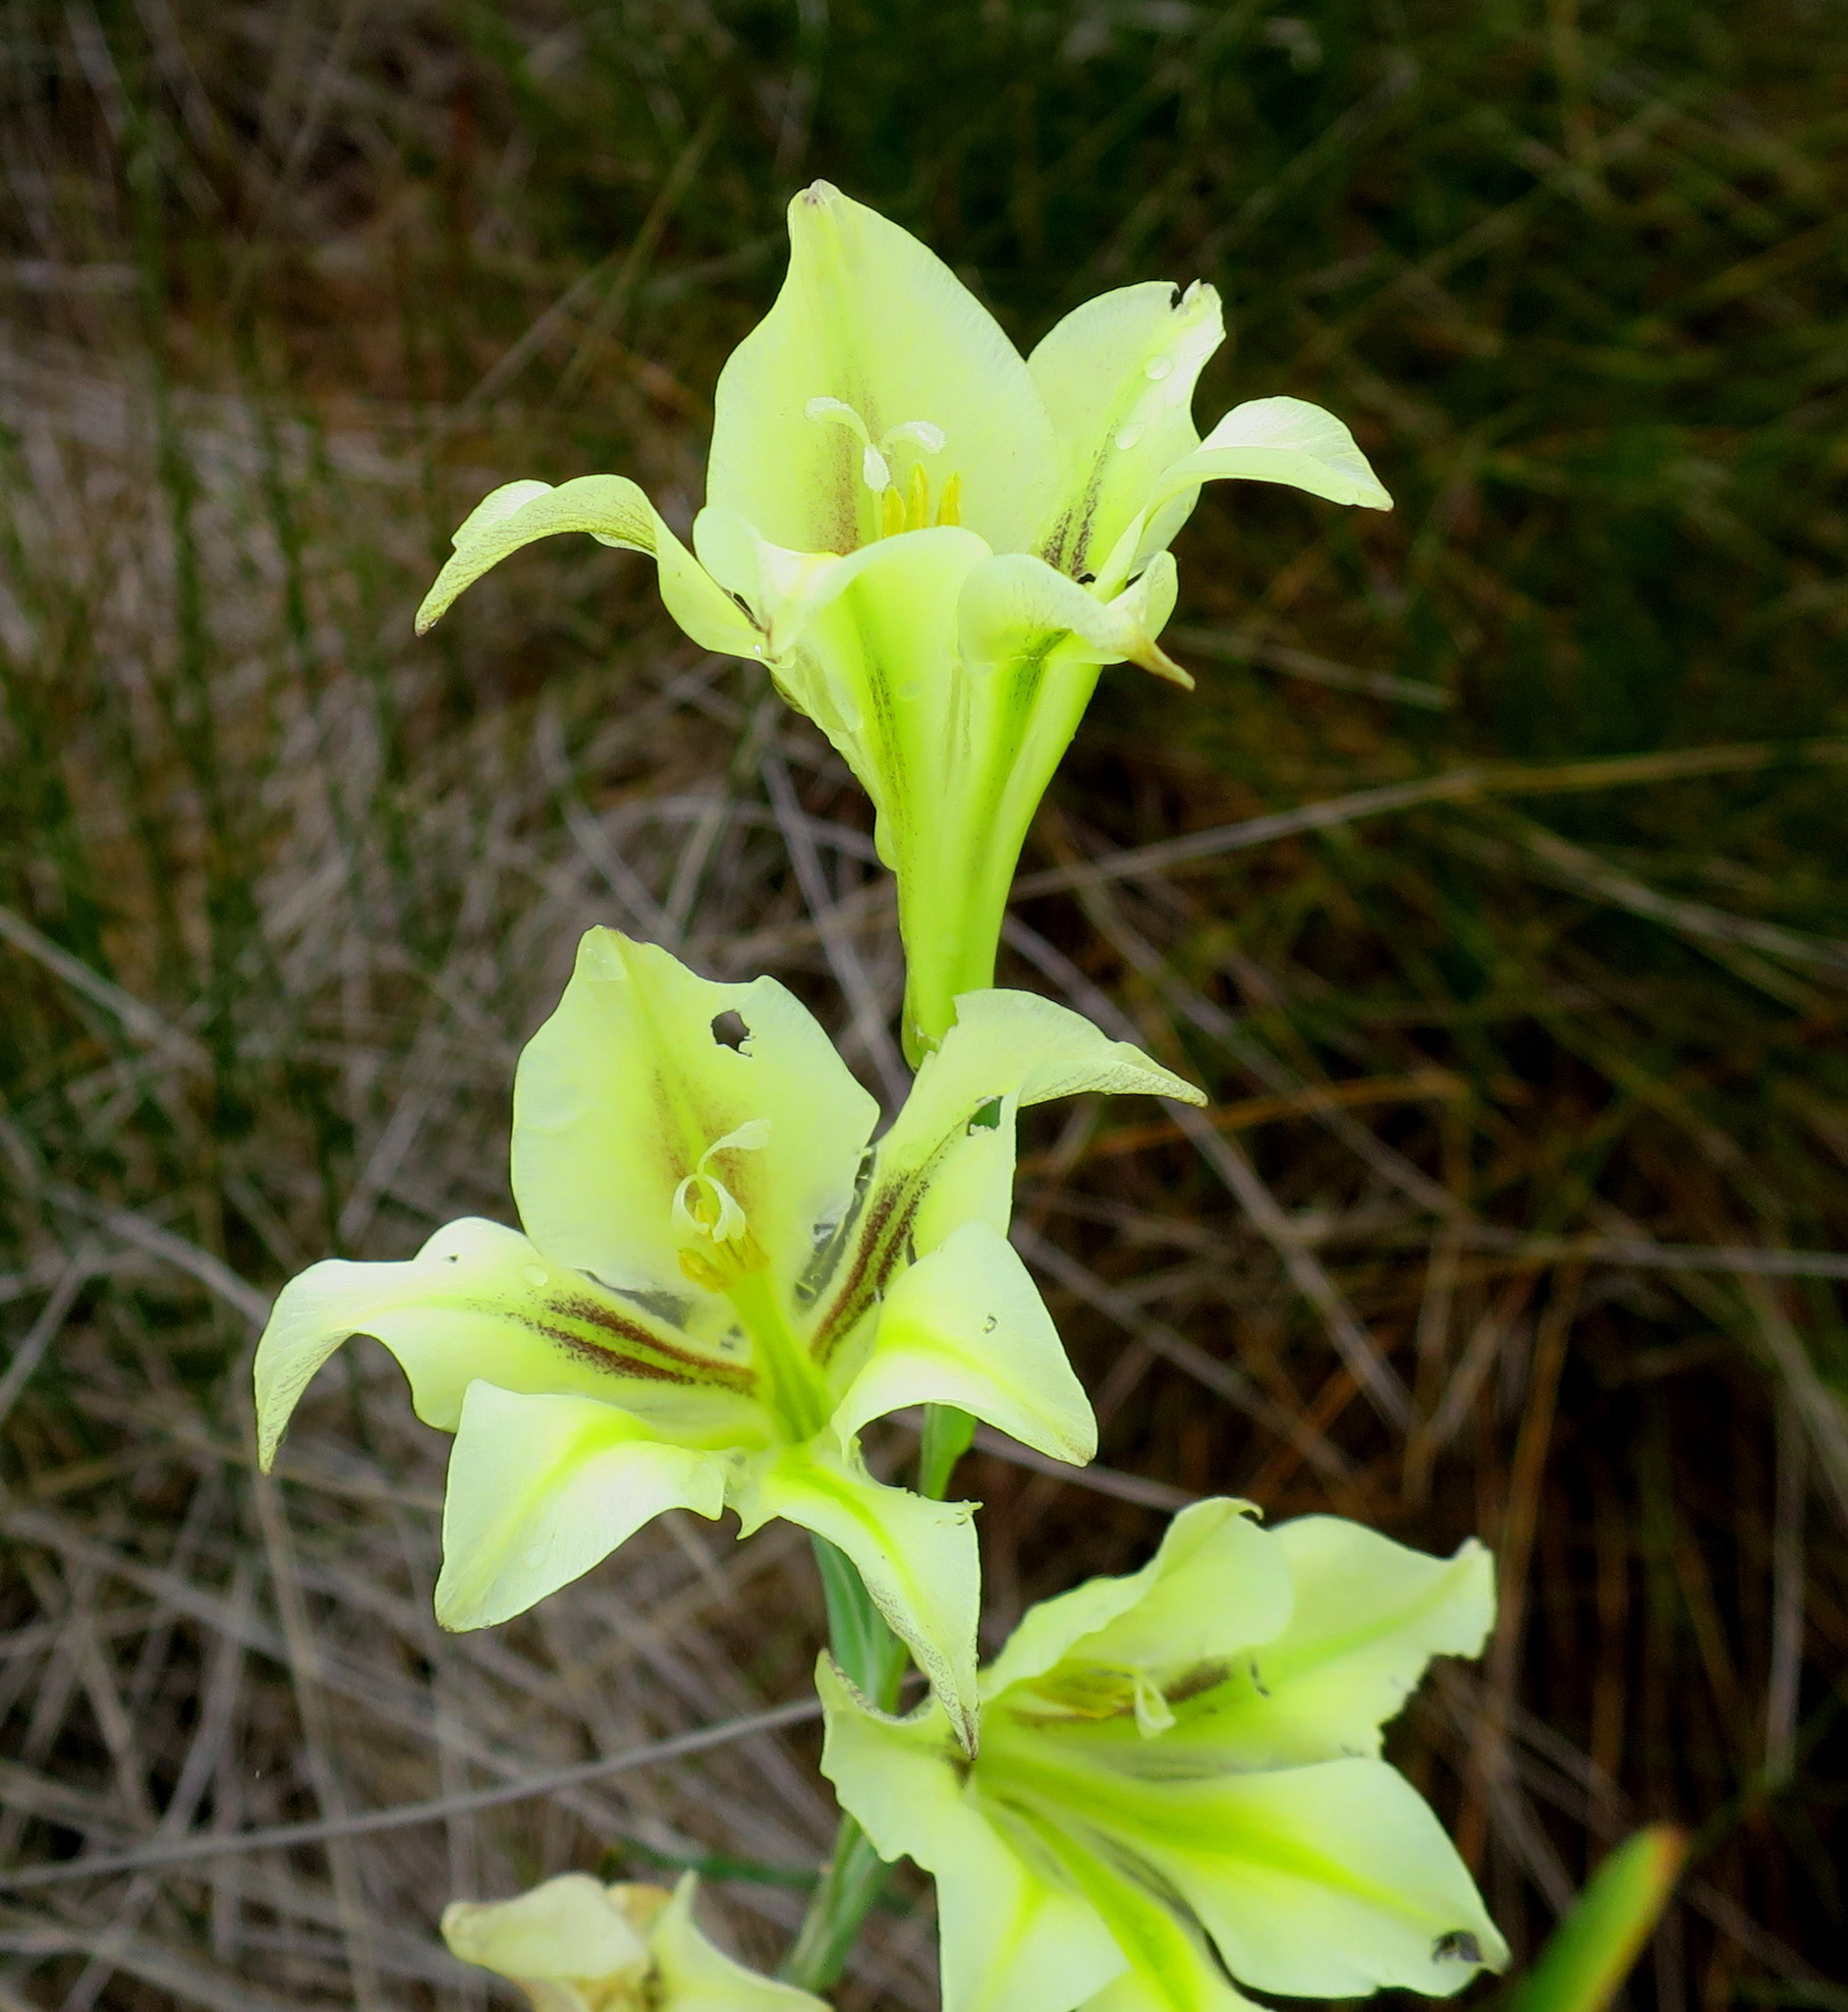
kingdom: Plantae
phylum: Tracheophyta
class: Liliopsida
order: Asparagales
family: Iridaceae
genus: Gladiolus
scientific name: Gladiolus tristis
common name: Ever-flowering gladiolus
